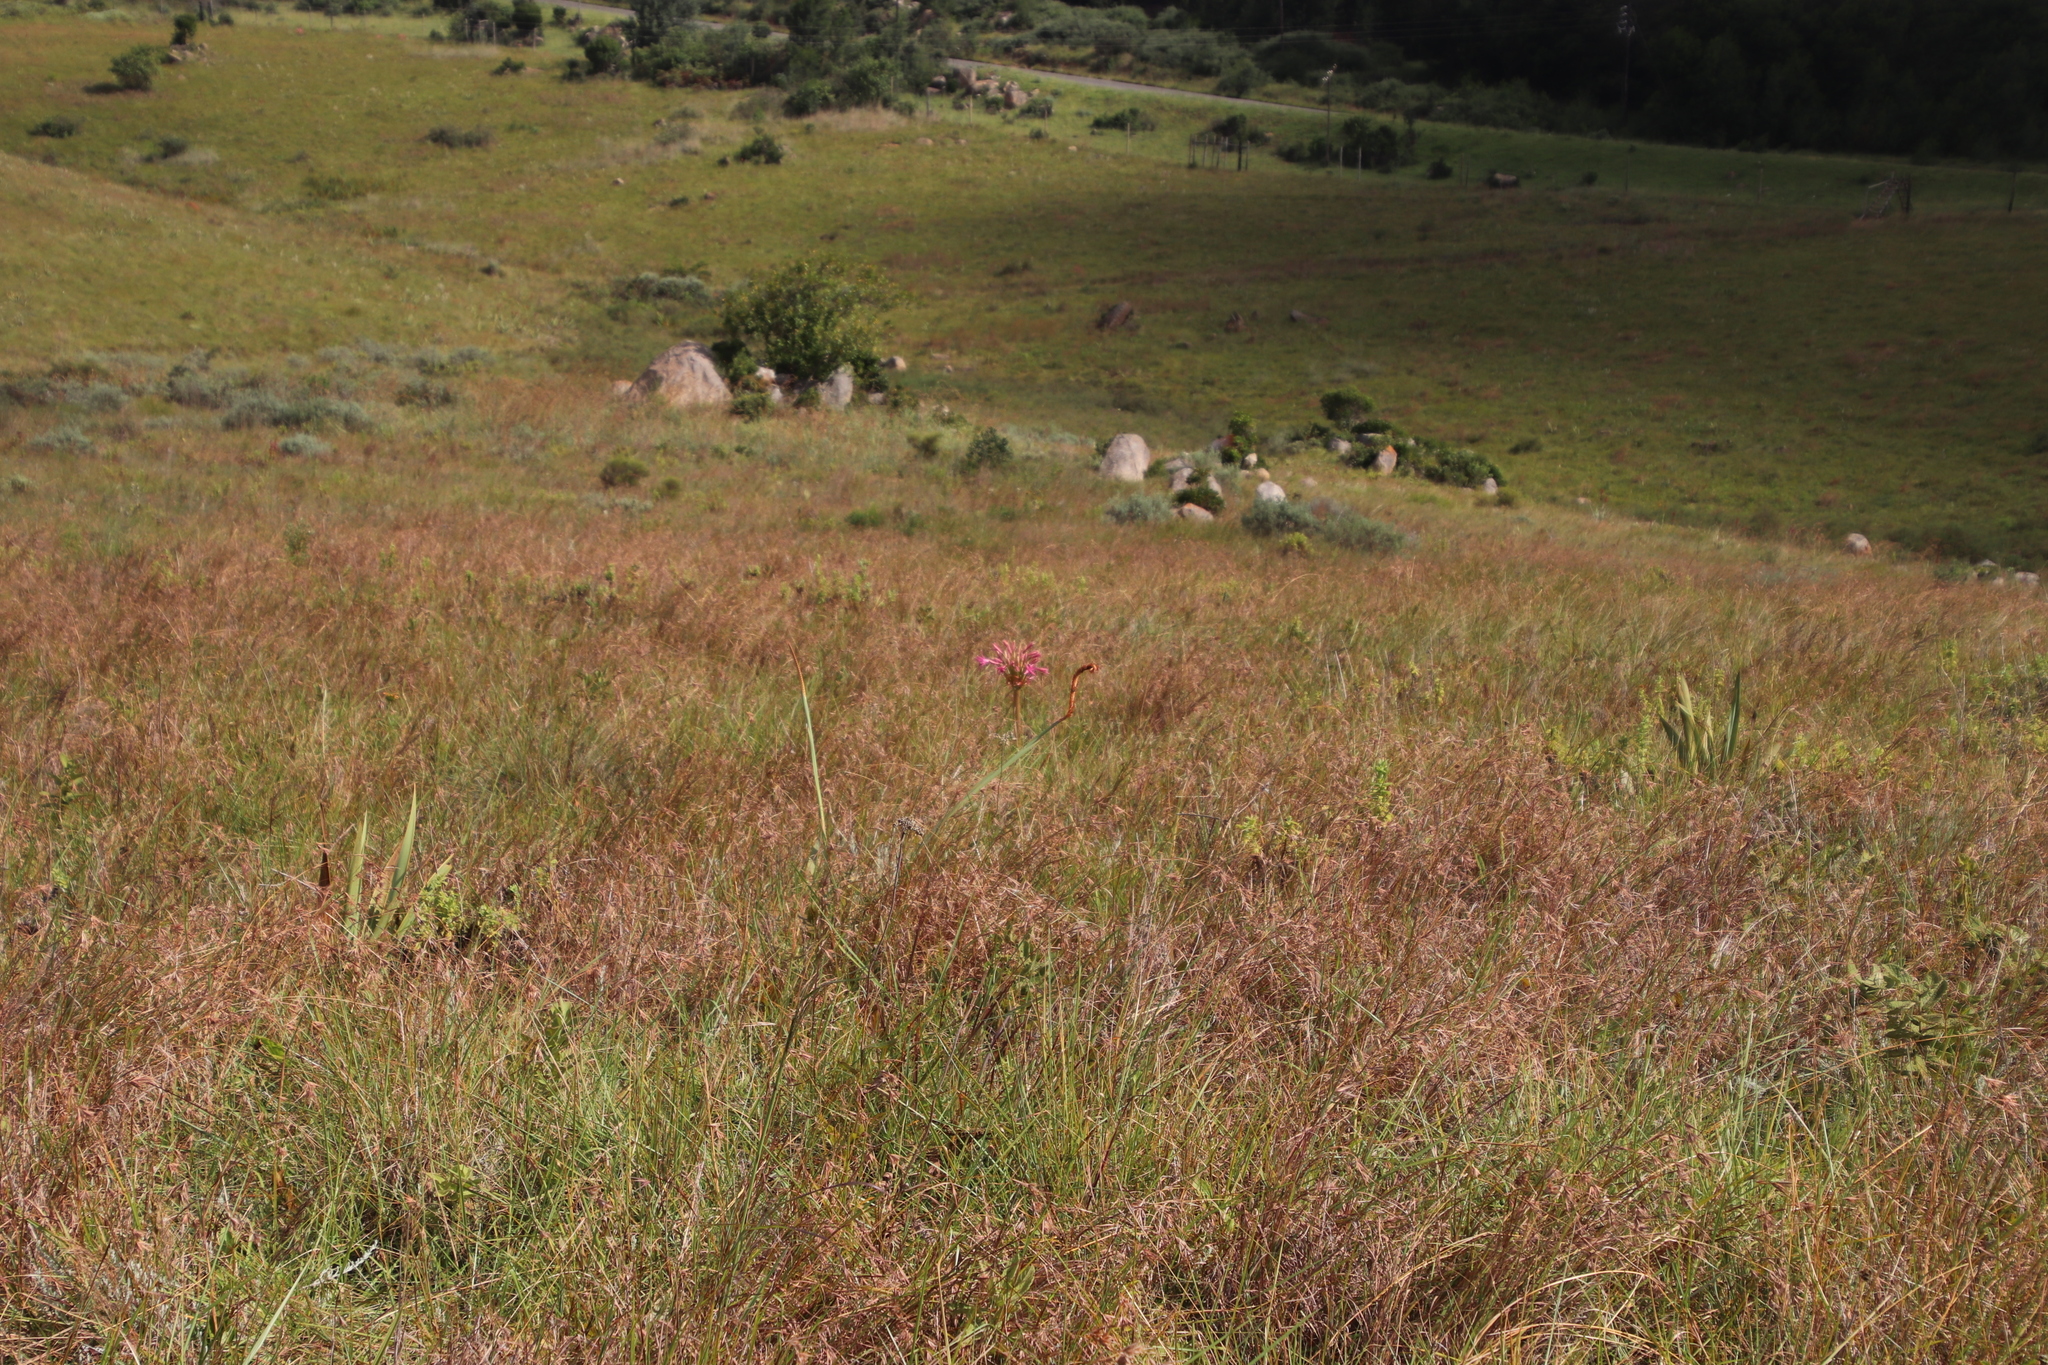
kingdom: Plantae
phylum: Tracheophyta
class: Liliopsida
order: Asparagales
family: Amaryllidaceae
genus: Brunsvigia
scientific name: Brunsvigia radulosa
